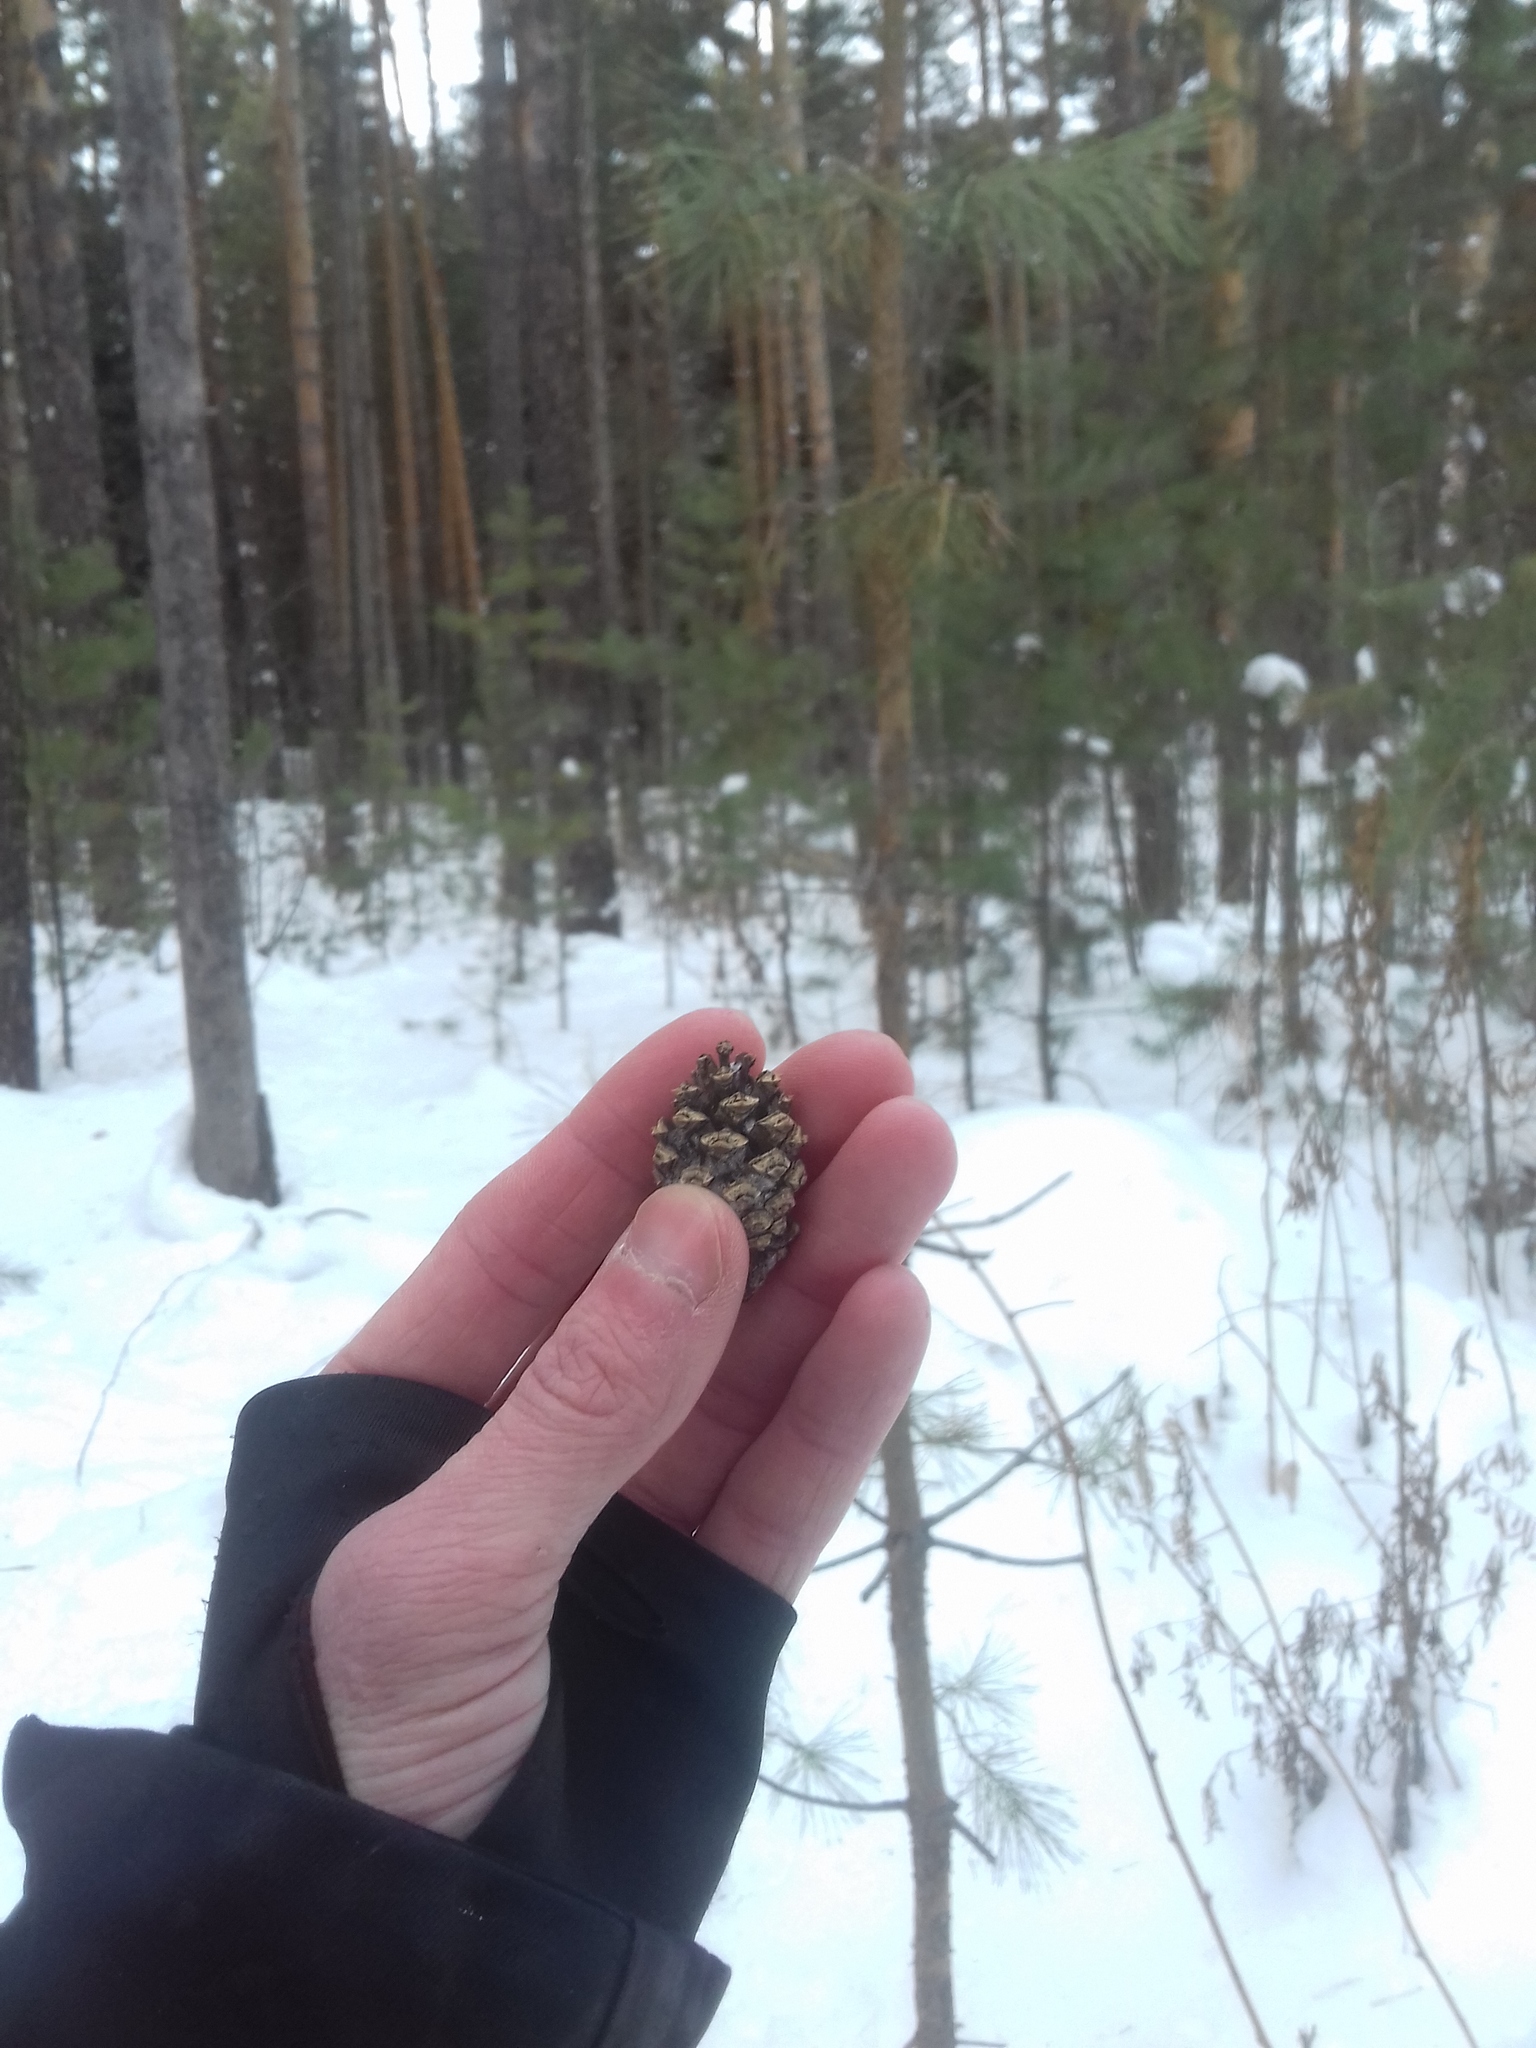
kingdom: Plantae
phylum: Tracheophyta
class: Pinopsida
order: Pinales
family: Pinaceae
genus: Pinus
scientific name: Pinus sylvestris
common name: Scots pine
